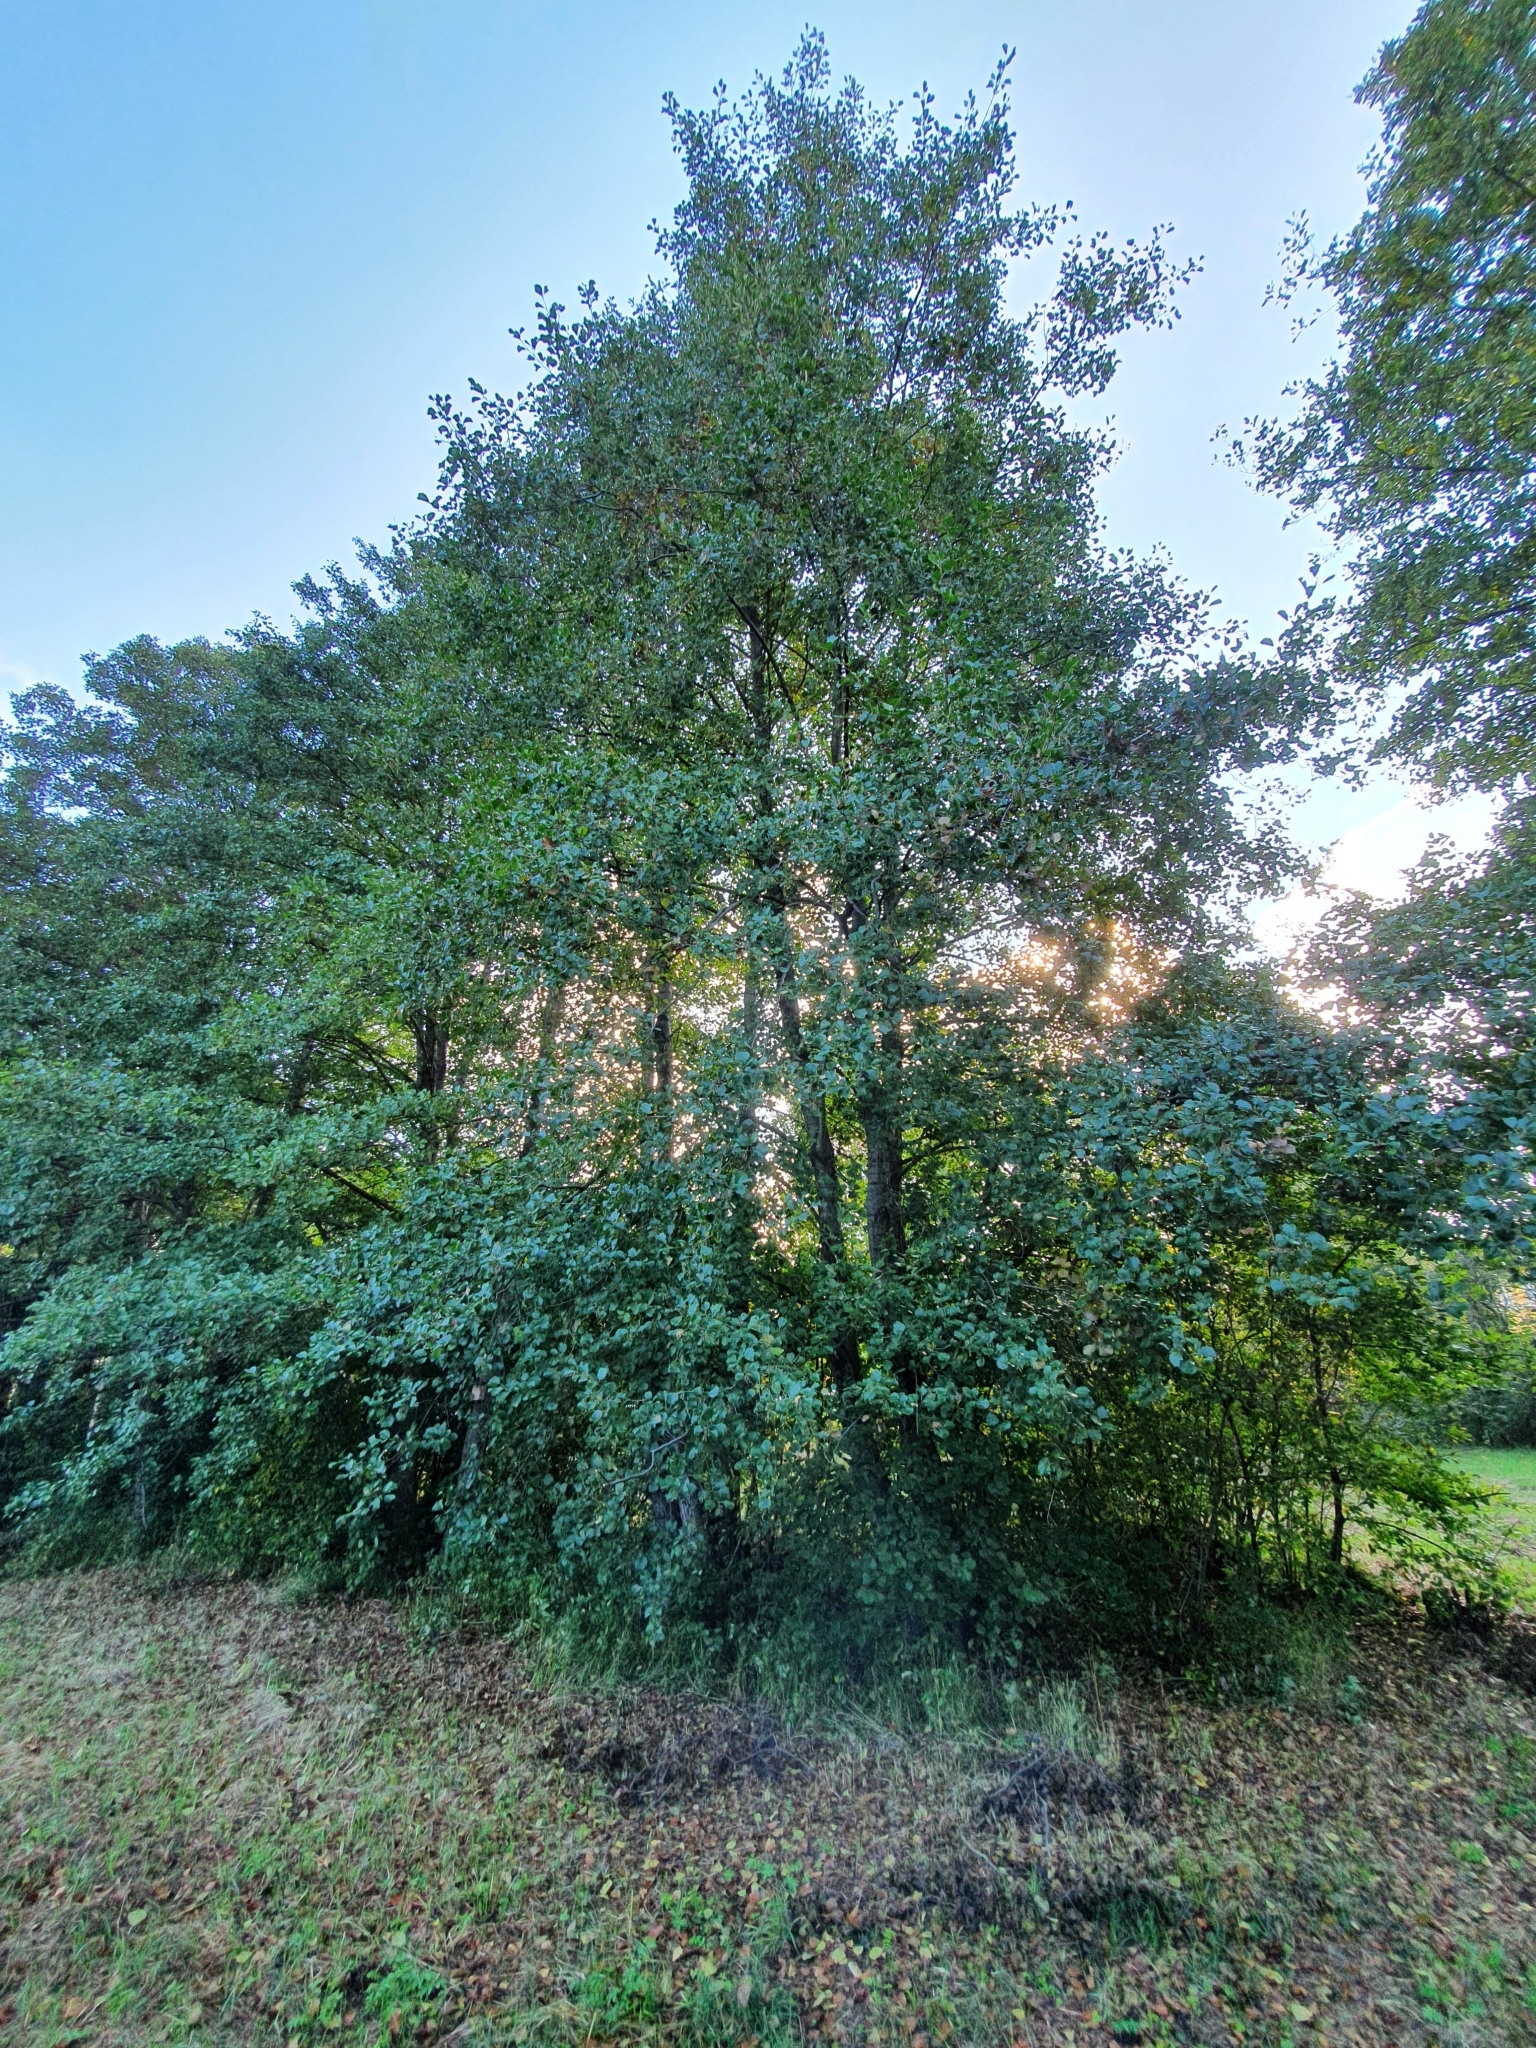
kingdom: Plantae
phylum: Tracheophyta
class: Magnoliopsida
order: Fagales
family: Betulaceae
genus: Alnus
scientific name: Alnus glutinosa
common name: Black alder
